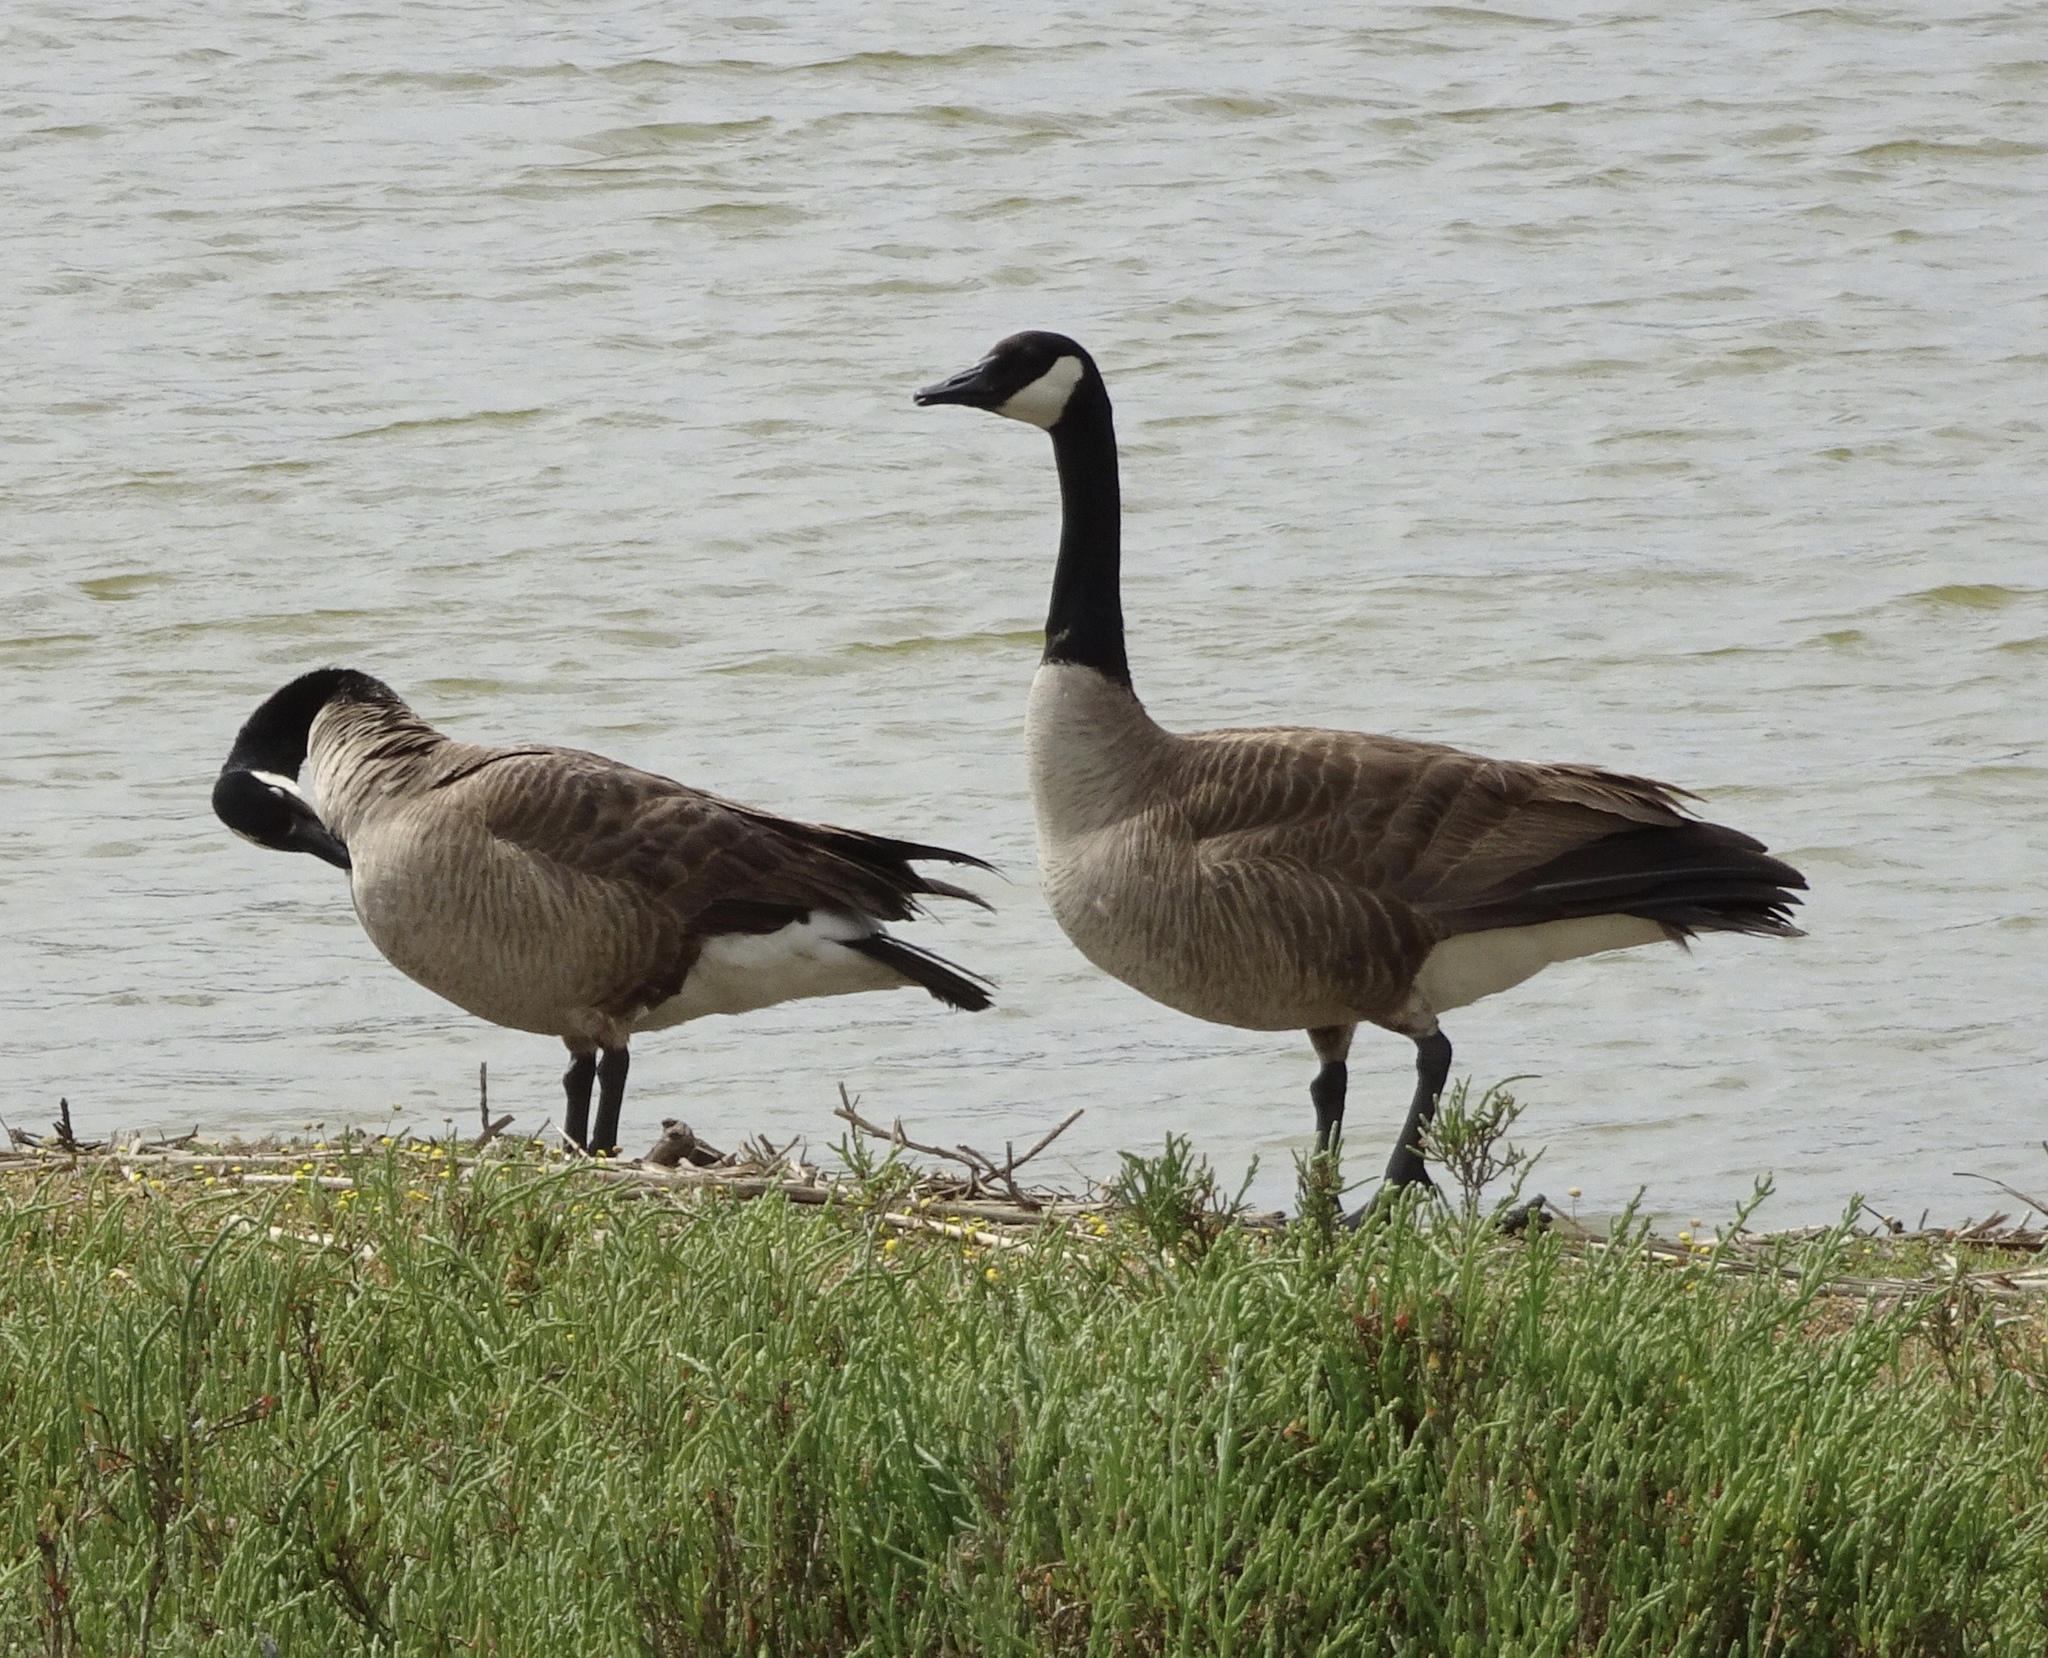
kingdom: Animalia
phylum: Chordata
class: Aves
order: Anseriformes
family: Anatidae
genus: Branta
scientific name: Branta canadensis
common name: Canada goose
